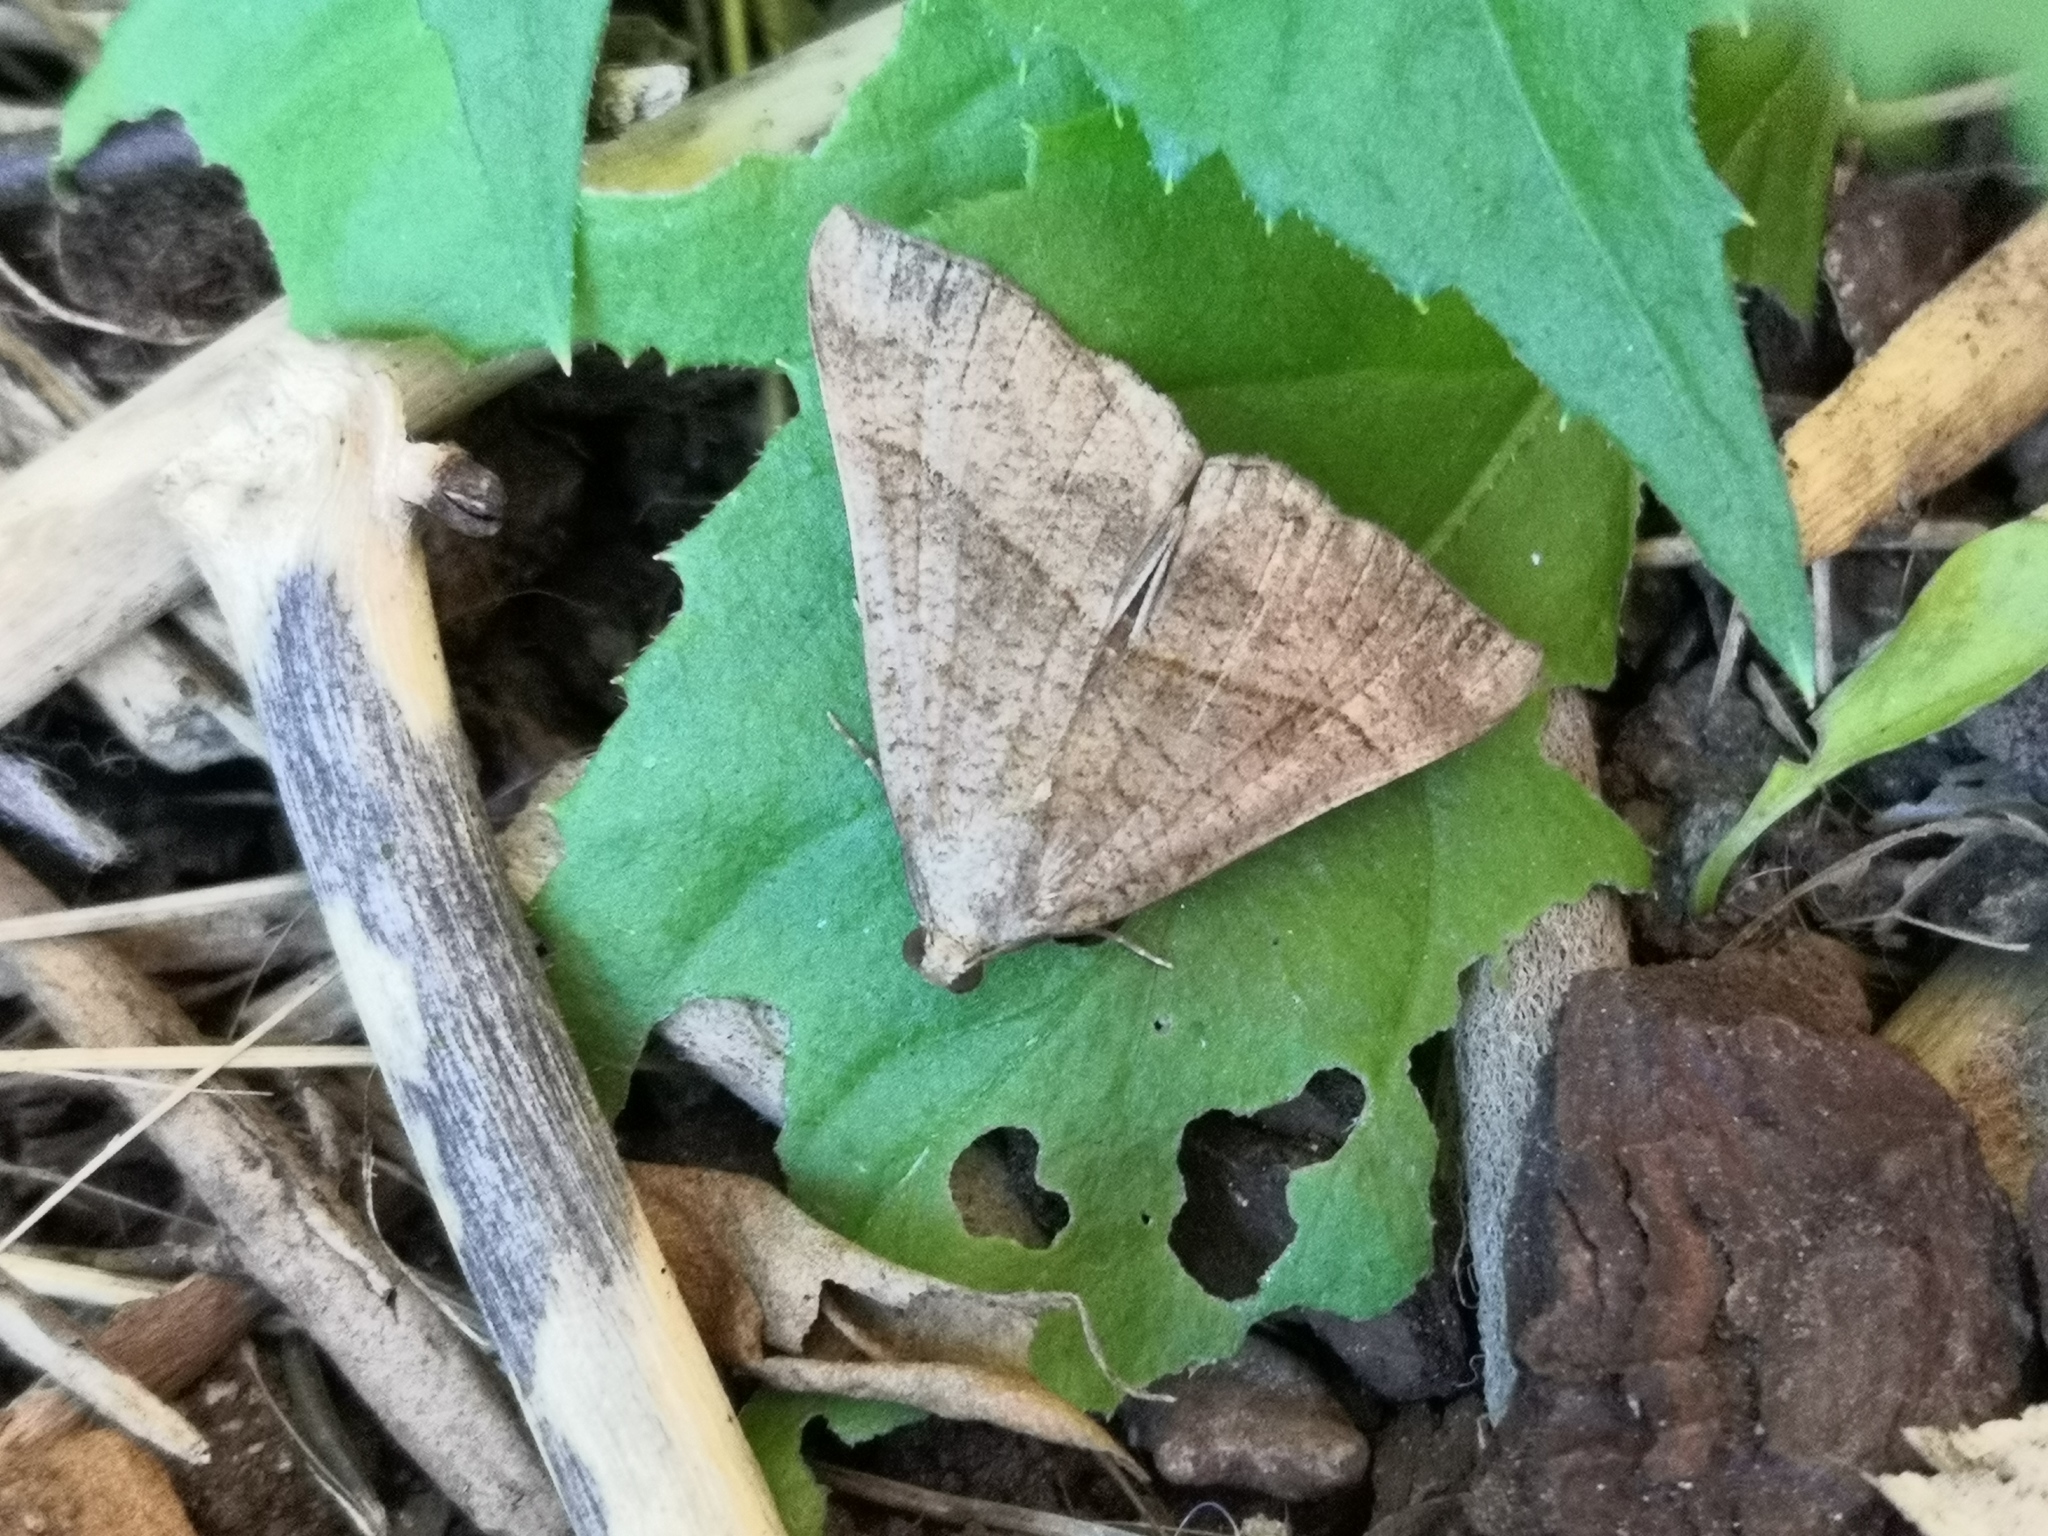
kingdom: Animalia
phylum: Arthropoda
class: Insecta
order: Lepidoptera
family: Erebidae
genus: Hypena
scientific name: Hypena proboscidalis
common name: Snout
